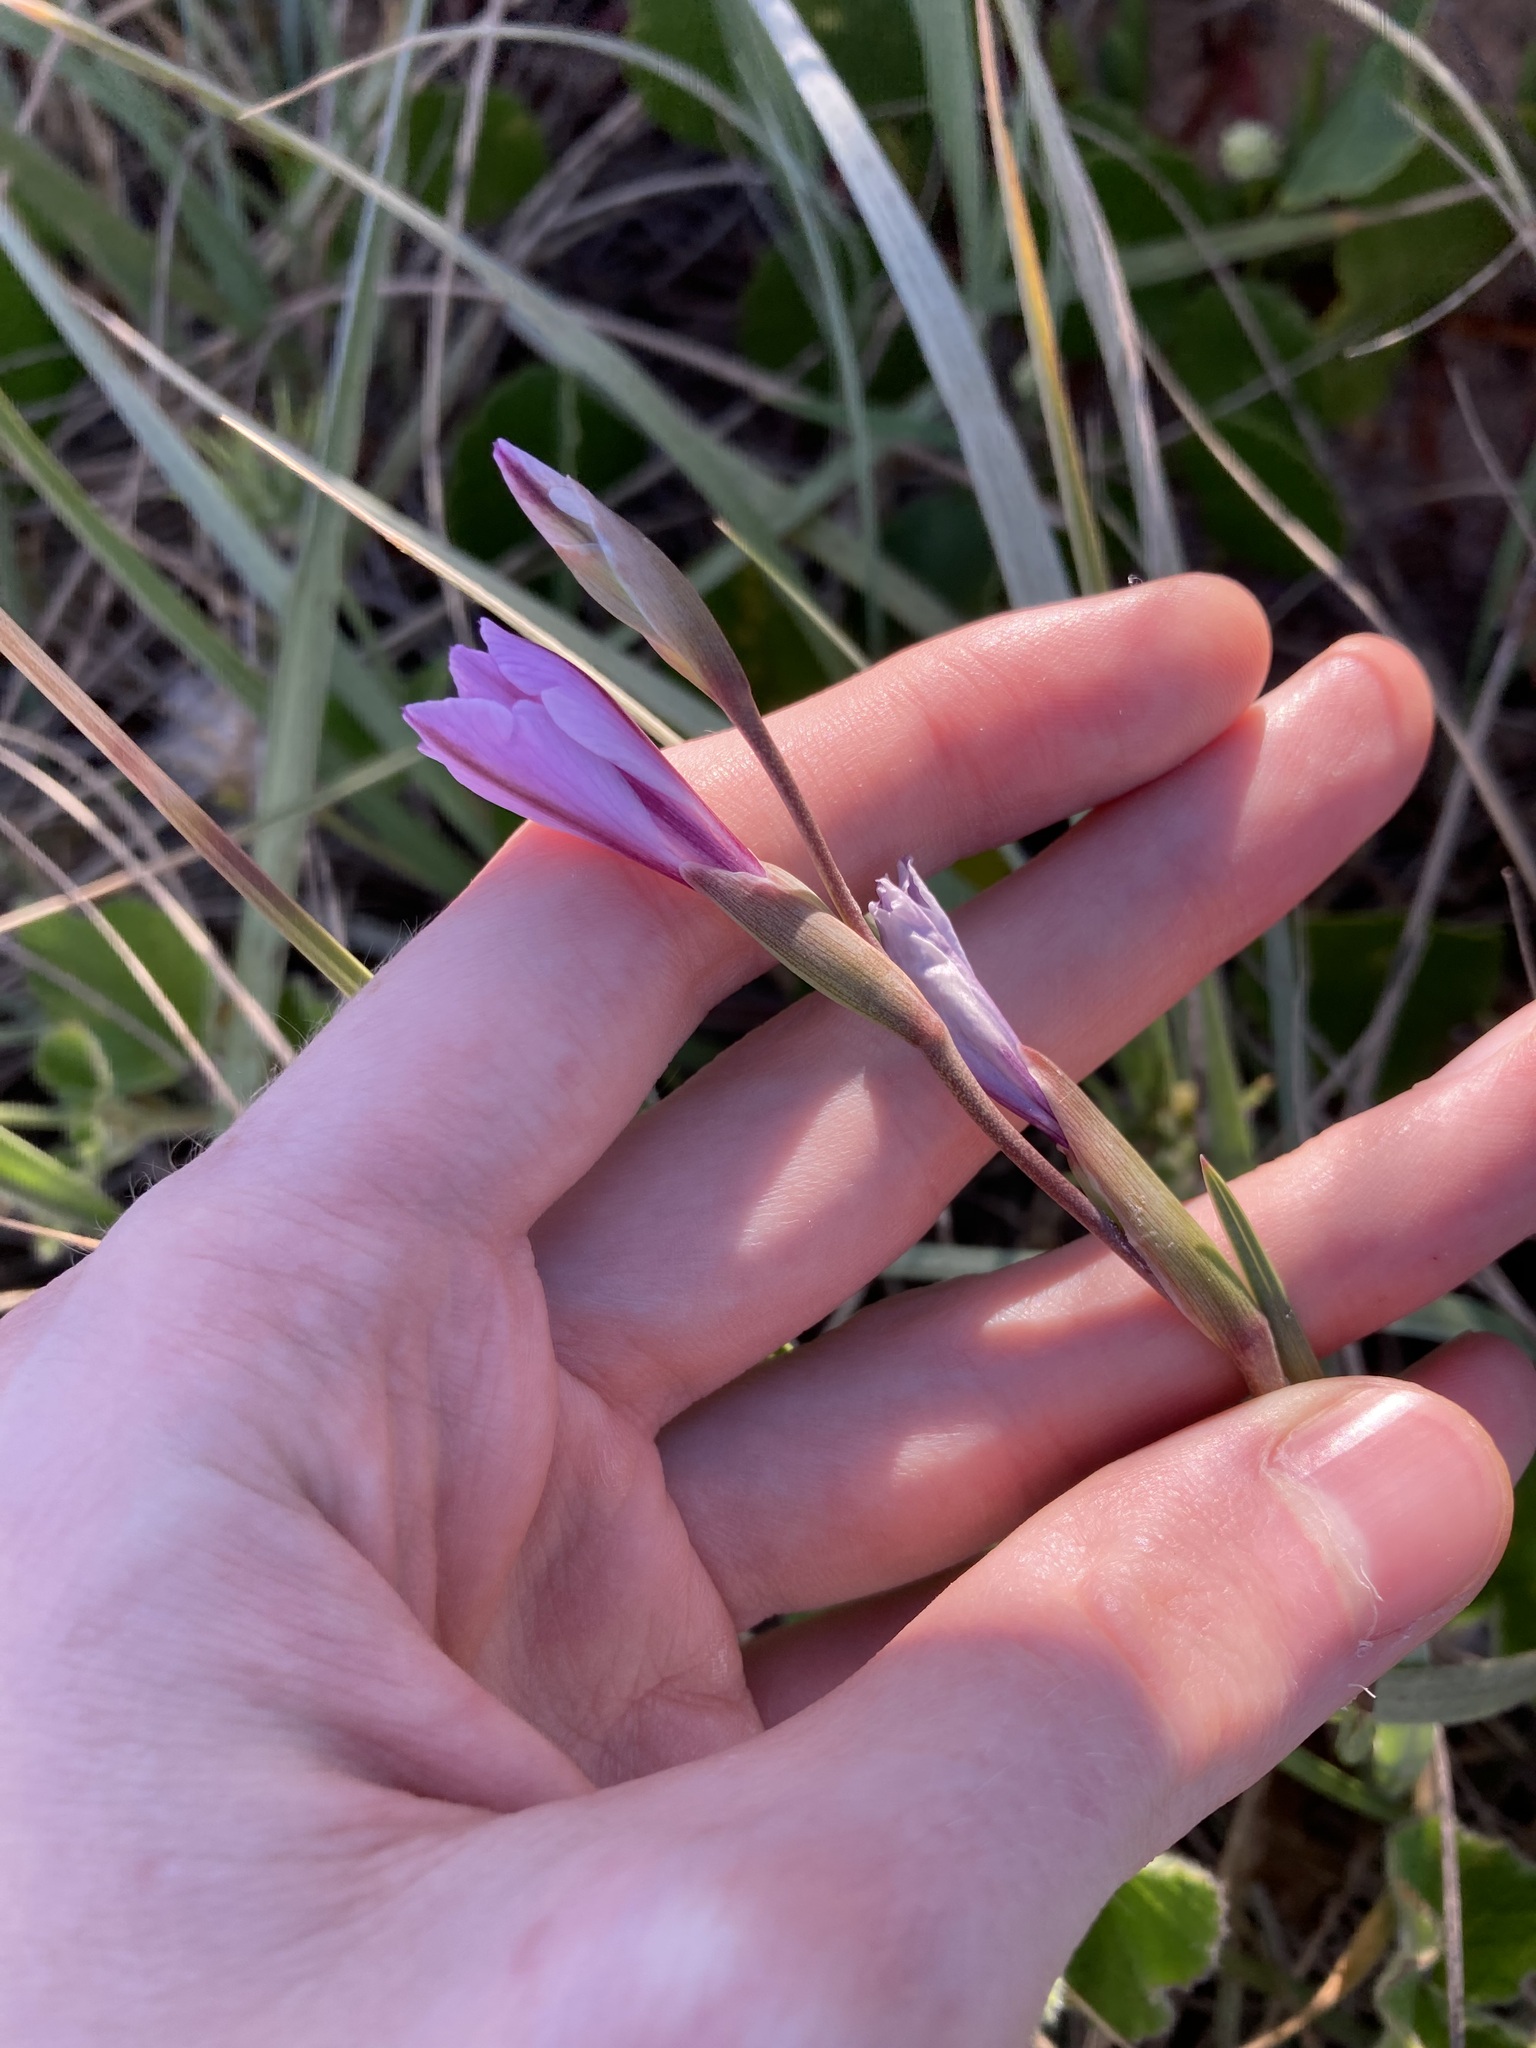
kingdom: Plantae
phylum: Tracheophyta
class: Liliopsida
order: Asparagales
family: Iridaceae
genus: Gladiolus
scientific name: Gladiolus gueinzii
